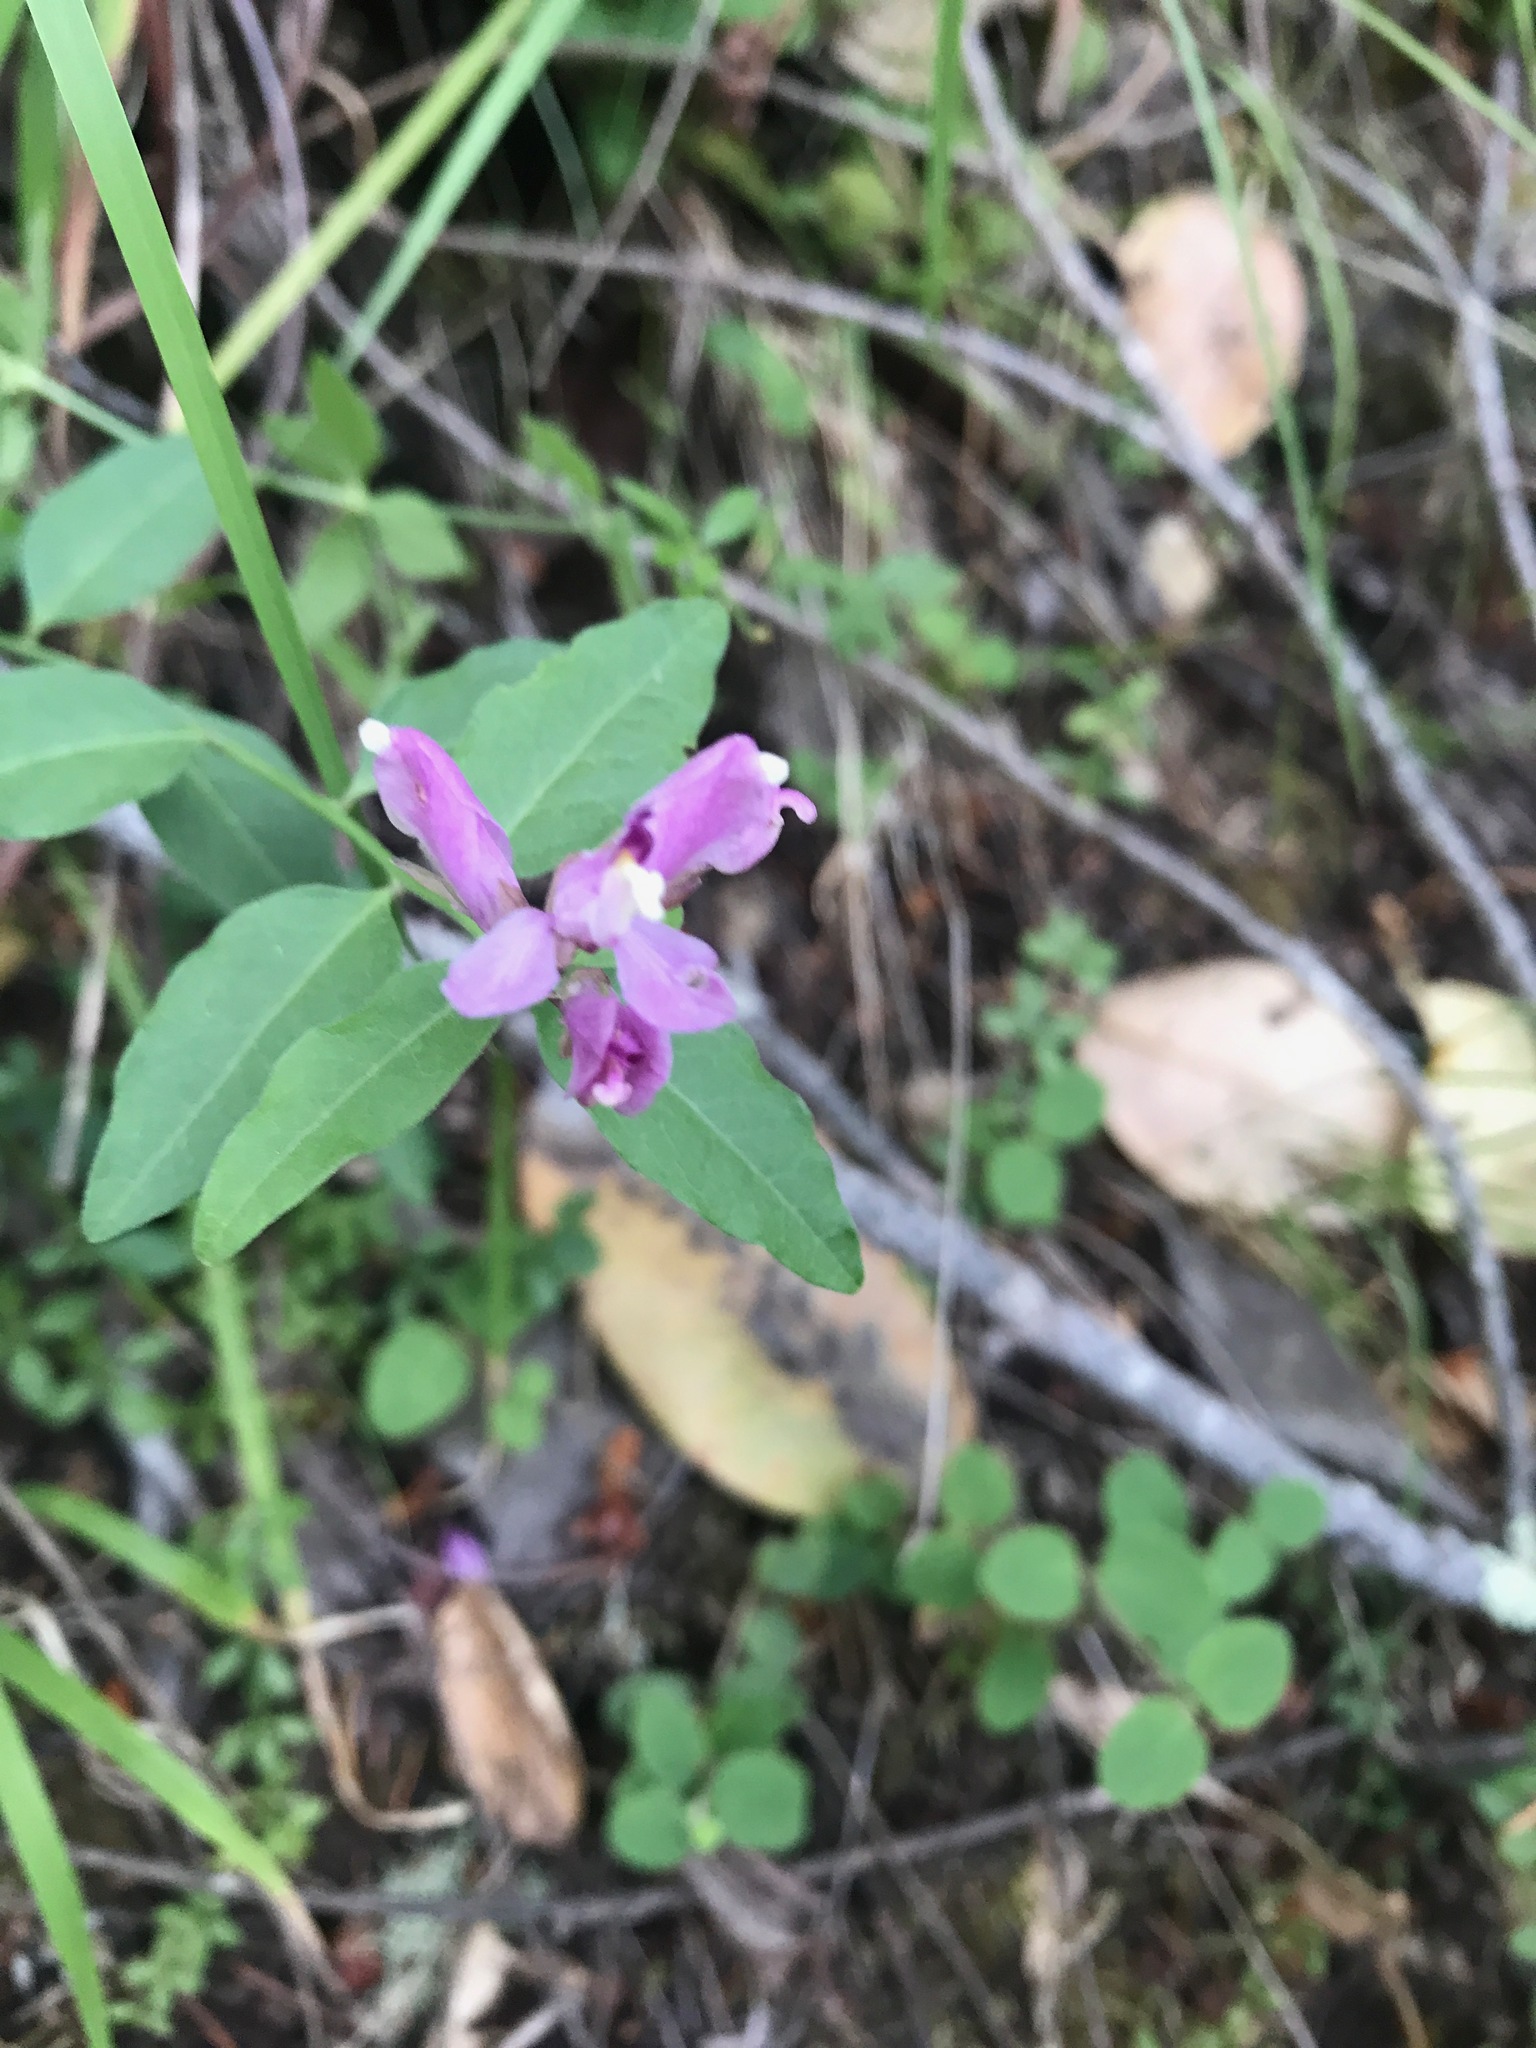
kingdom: Plantae
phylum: Tracheophyta
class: Magnoliopsida
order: Fabales
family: Polygalaceae
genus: Rhinotropis
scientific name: Rhinotropis californica
